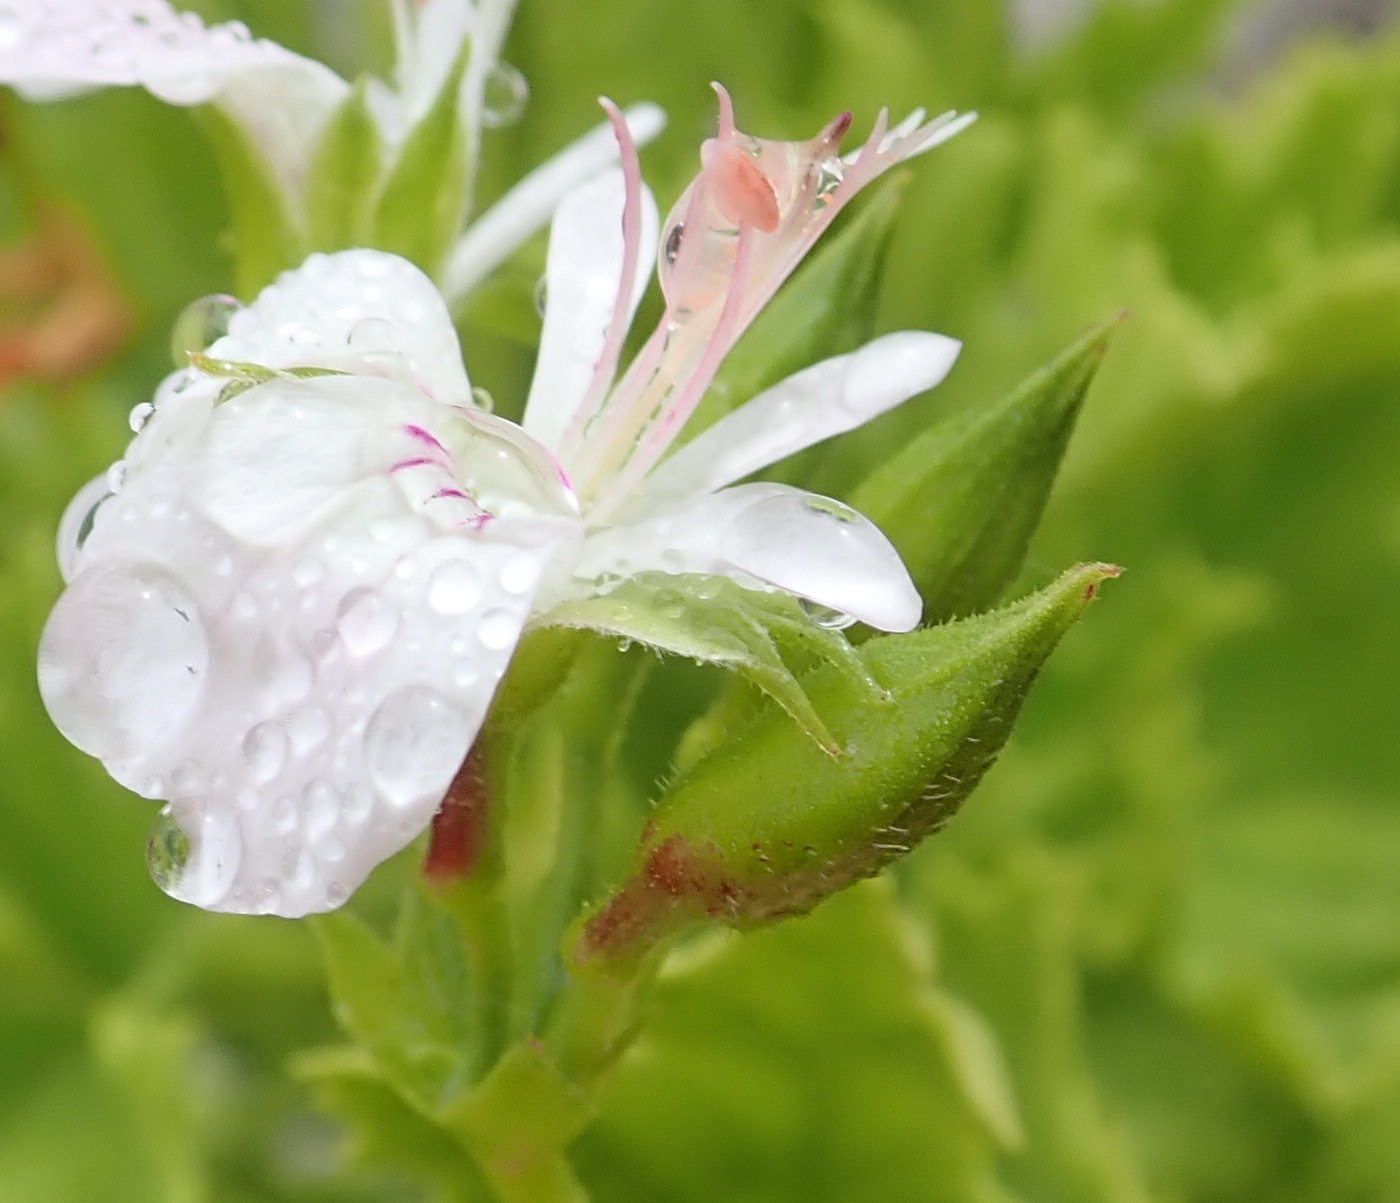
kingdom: Plantae
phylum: Tracheophyta
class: Magnoliopsida
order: Geraniales
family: Geraniaceae
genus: Pelargonium
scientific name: Pelargonium scabrum
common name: Apricot geranium
